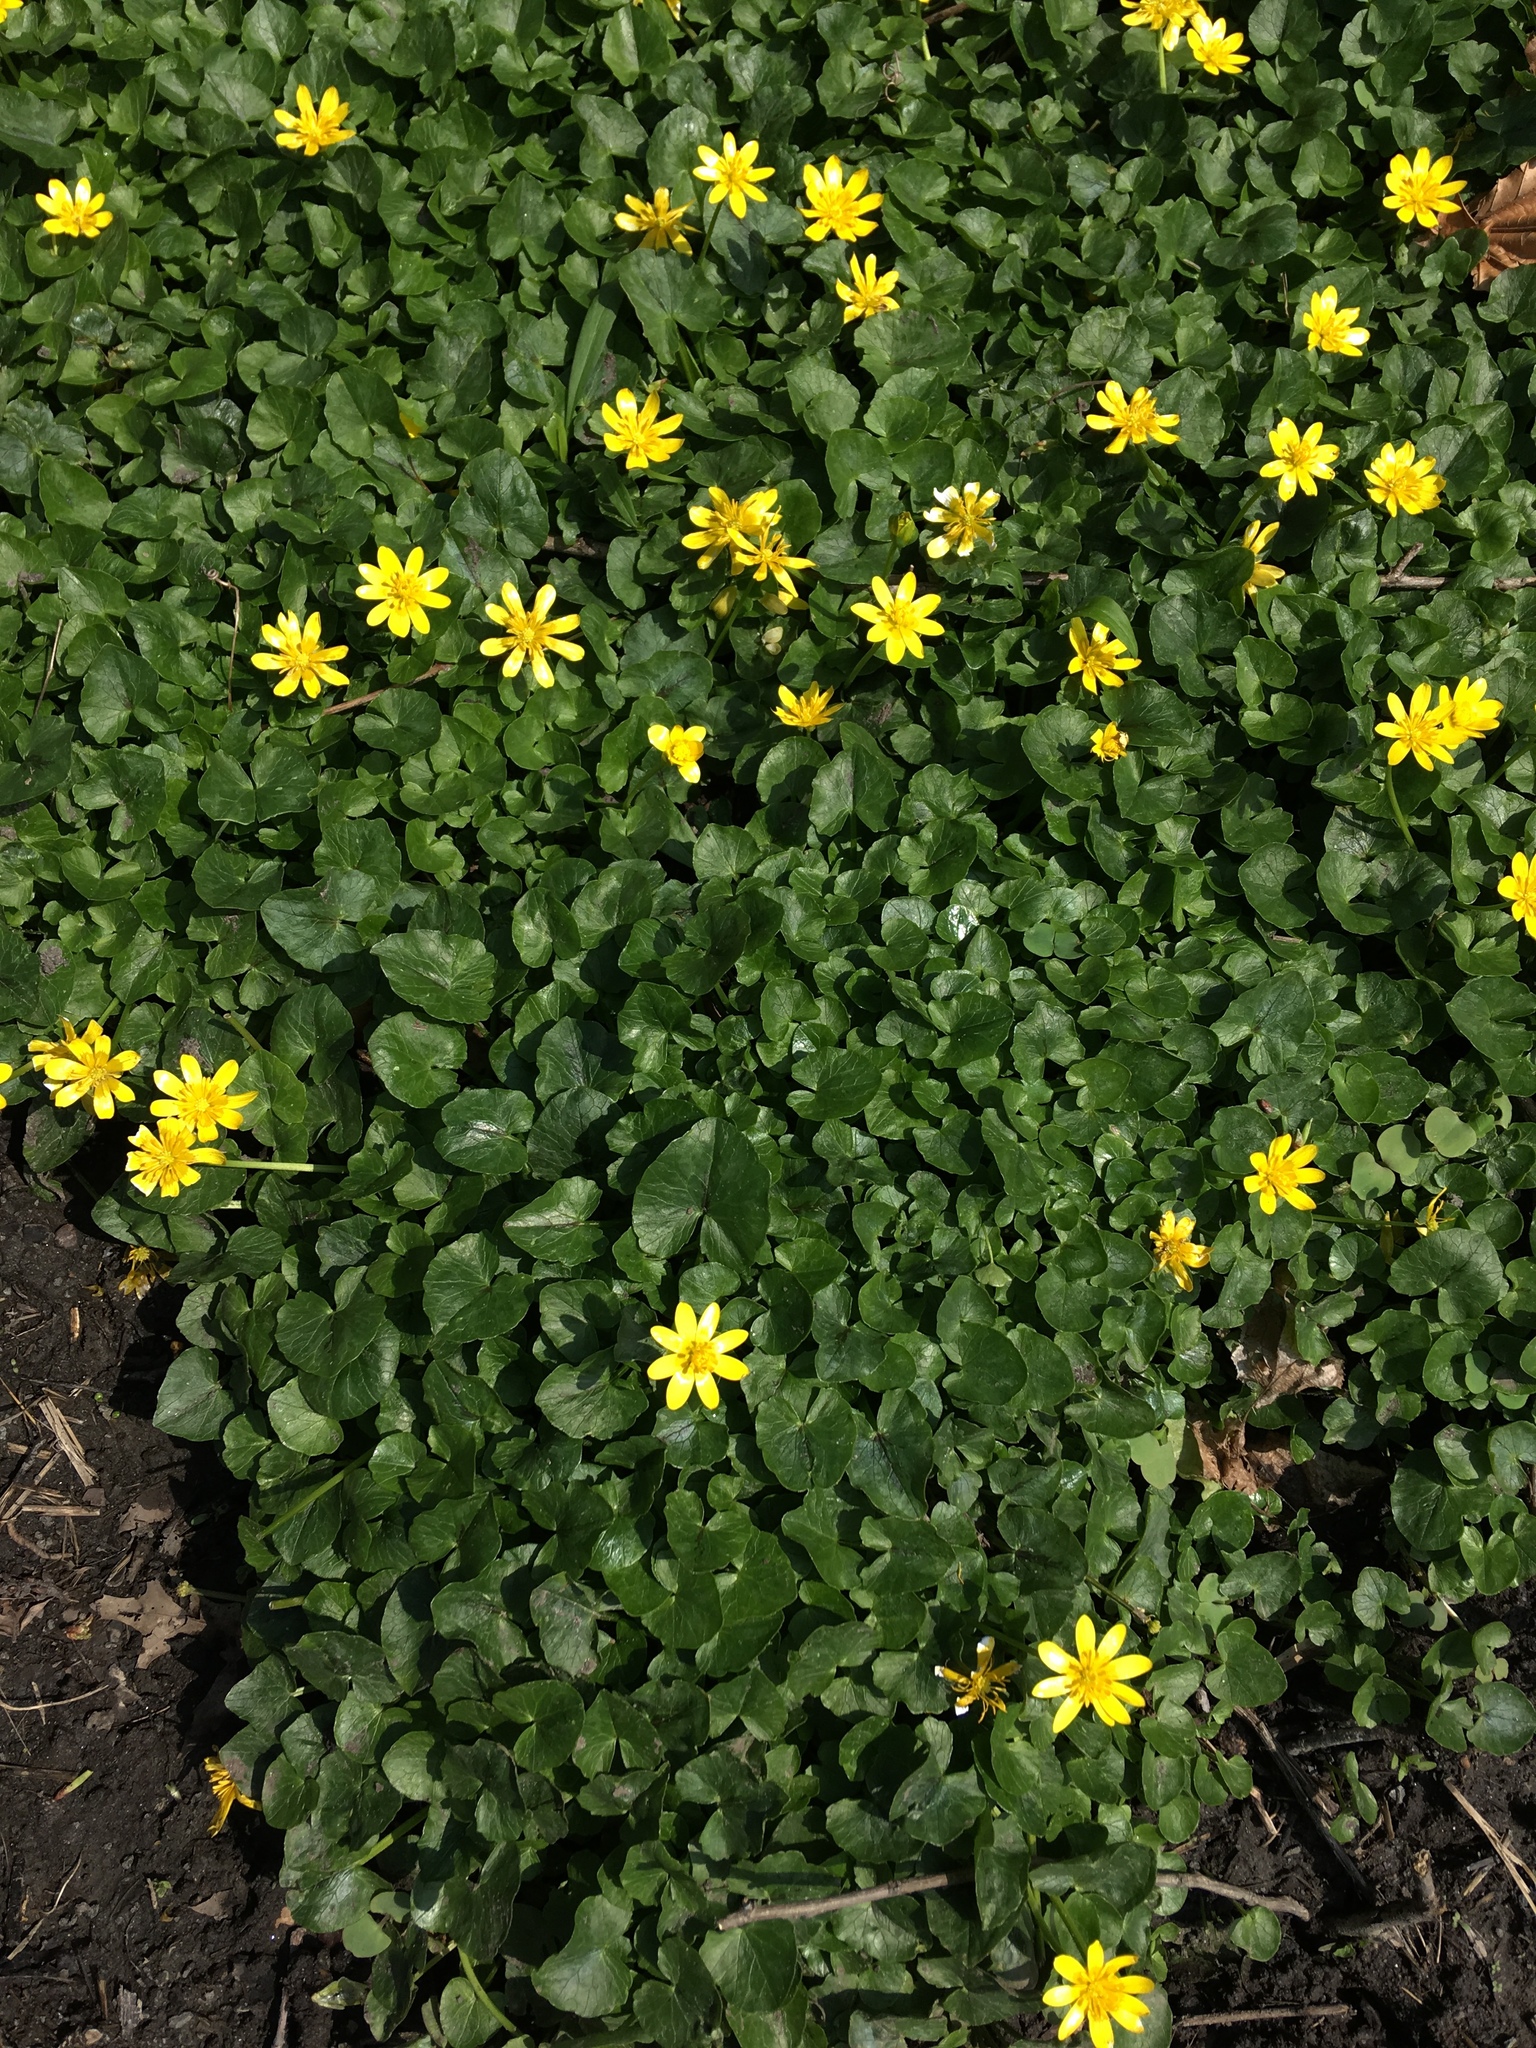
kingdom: Plantae
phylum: Tracheophyta
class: Magnoliopsida
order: Ranunculales
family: Ranunculaceae
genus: Ficaria
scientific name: Ficaria verna
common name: Lesser celandine
